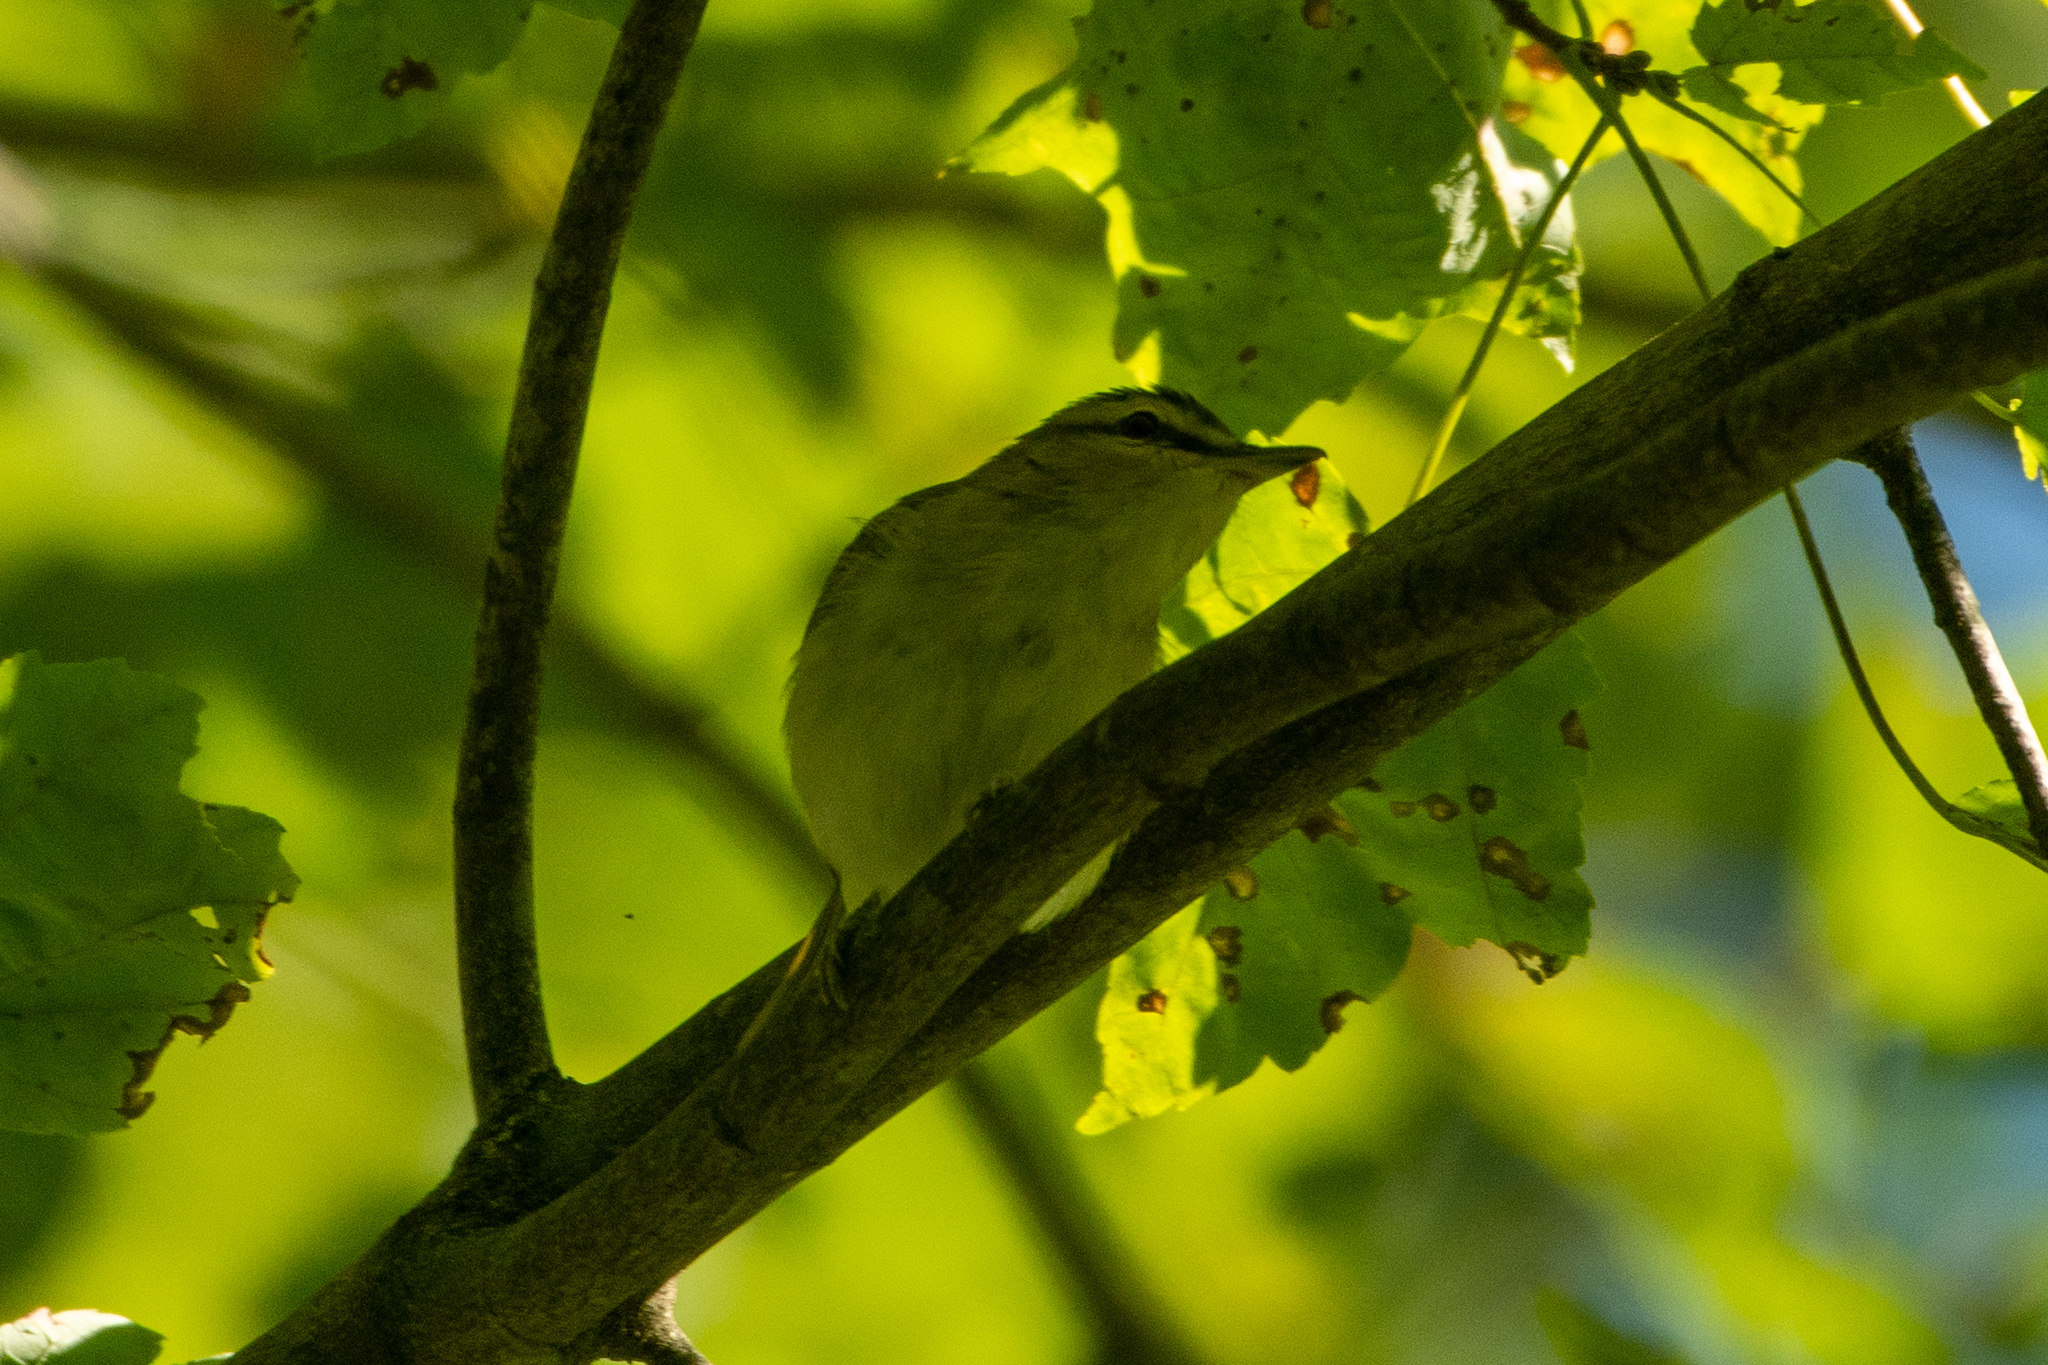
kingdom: Animalia
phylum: Chordata
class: Aves
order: Passeriformes
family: Vireonidae
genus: Vireo
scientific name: Vireo olivaceus
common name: Red-eyed vireo
